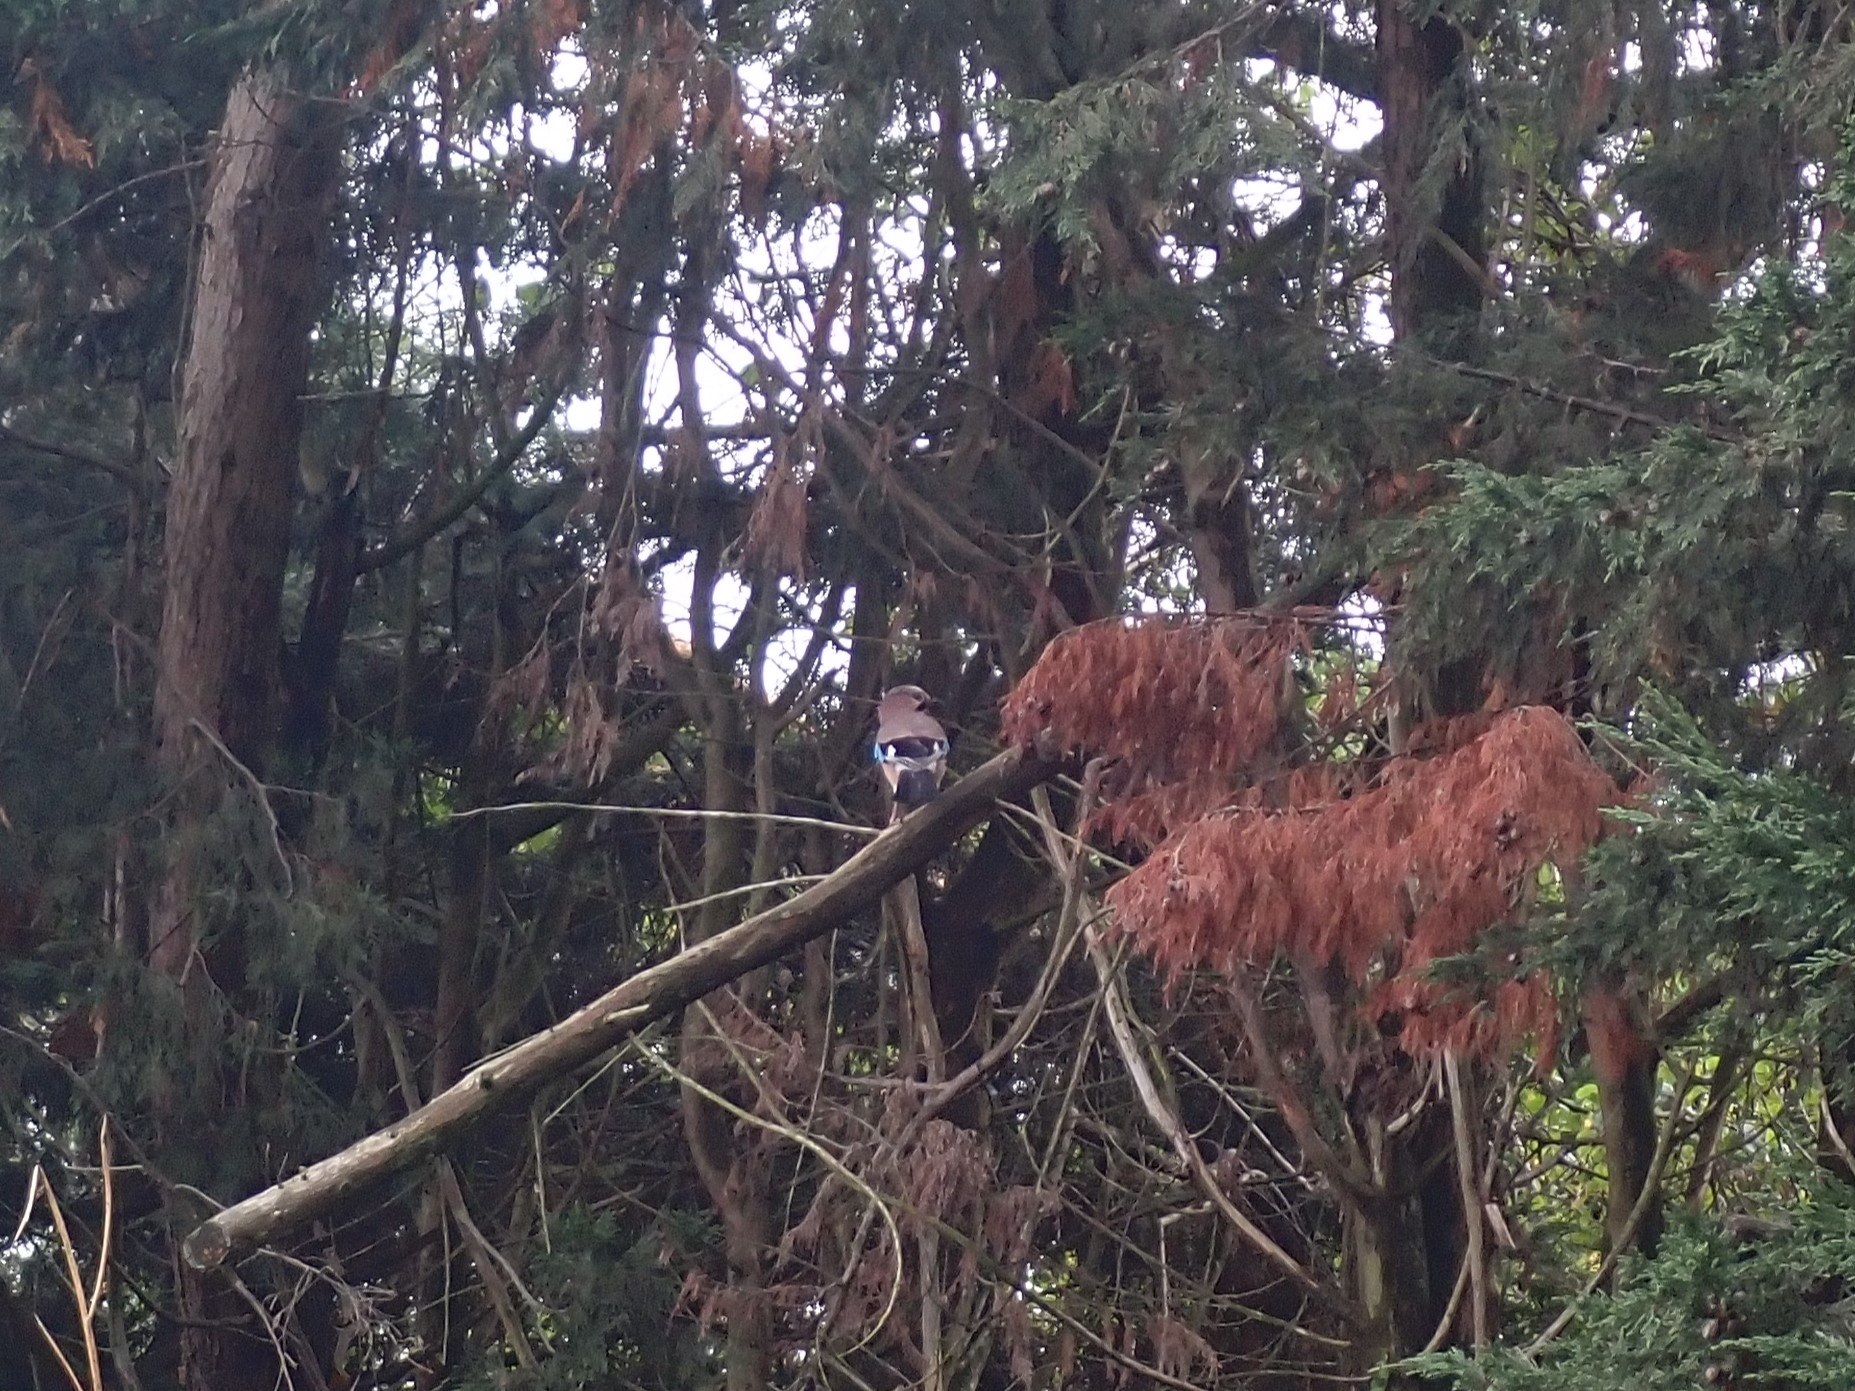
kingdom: Animalia
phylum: Chordata
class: Aves
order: Passeriformes
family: Corvidae
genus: Garrulus
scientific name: Garrulus glandarius
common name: Eurasian jay
